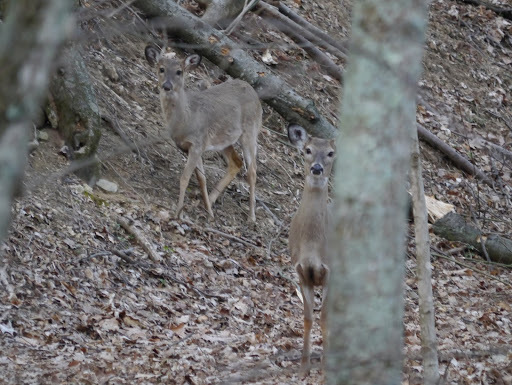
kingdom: Animalia
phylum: Chordata
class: Mammalia
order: Artiodactyla
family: Cervidae
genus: Odocoileus
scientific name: Odocoileus virginianus
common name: White-tailed deer
